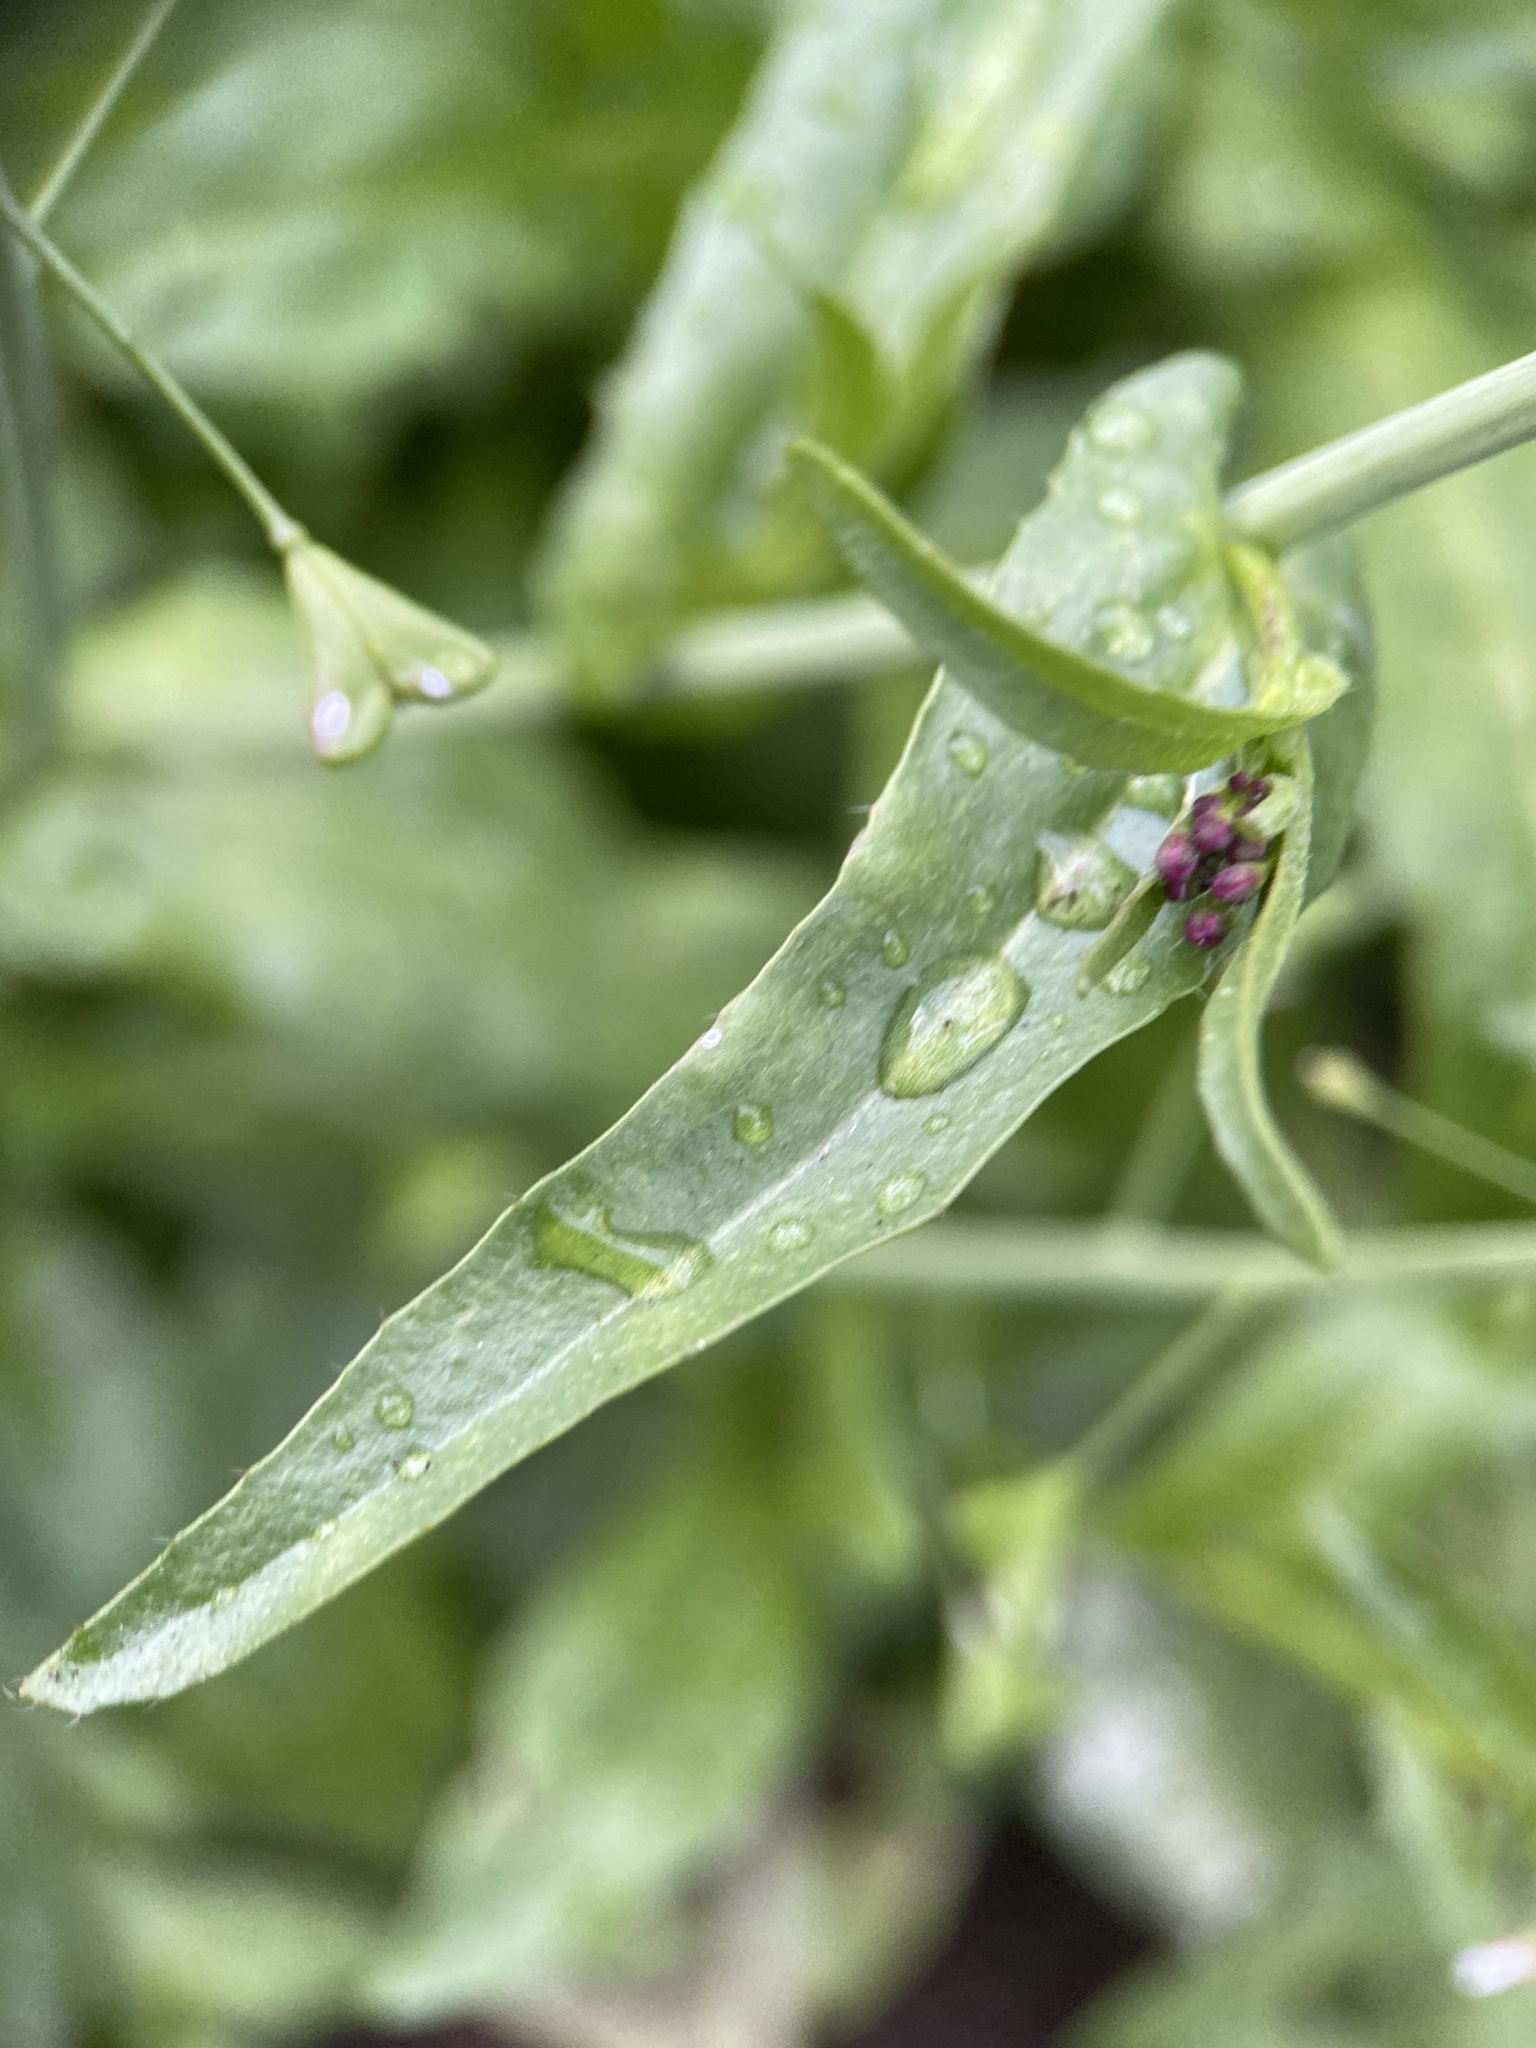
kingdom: Plantae
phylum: Tracheophyta
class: Magnoliopsida
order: Brassicales
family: Brassicaceae
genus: Capsella
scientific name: Capsella bursa-pastoris
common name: Shepherd's purse
